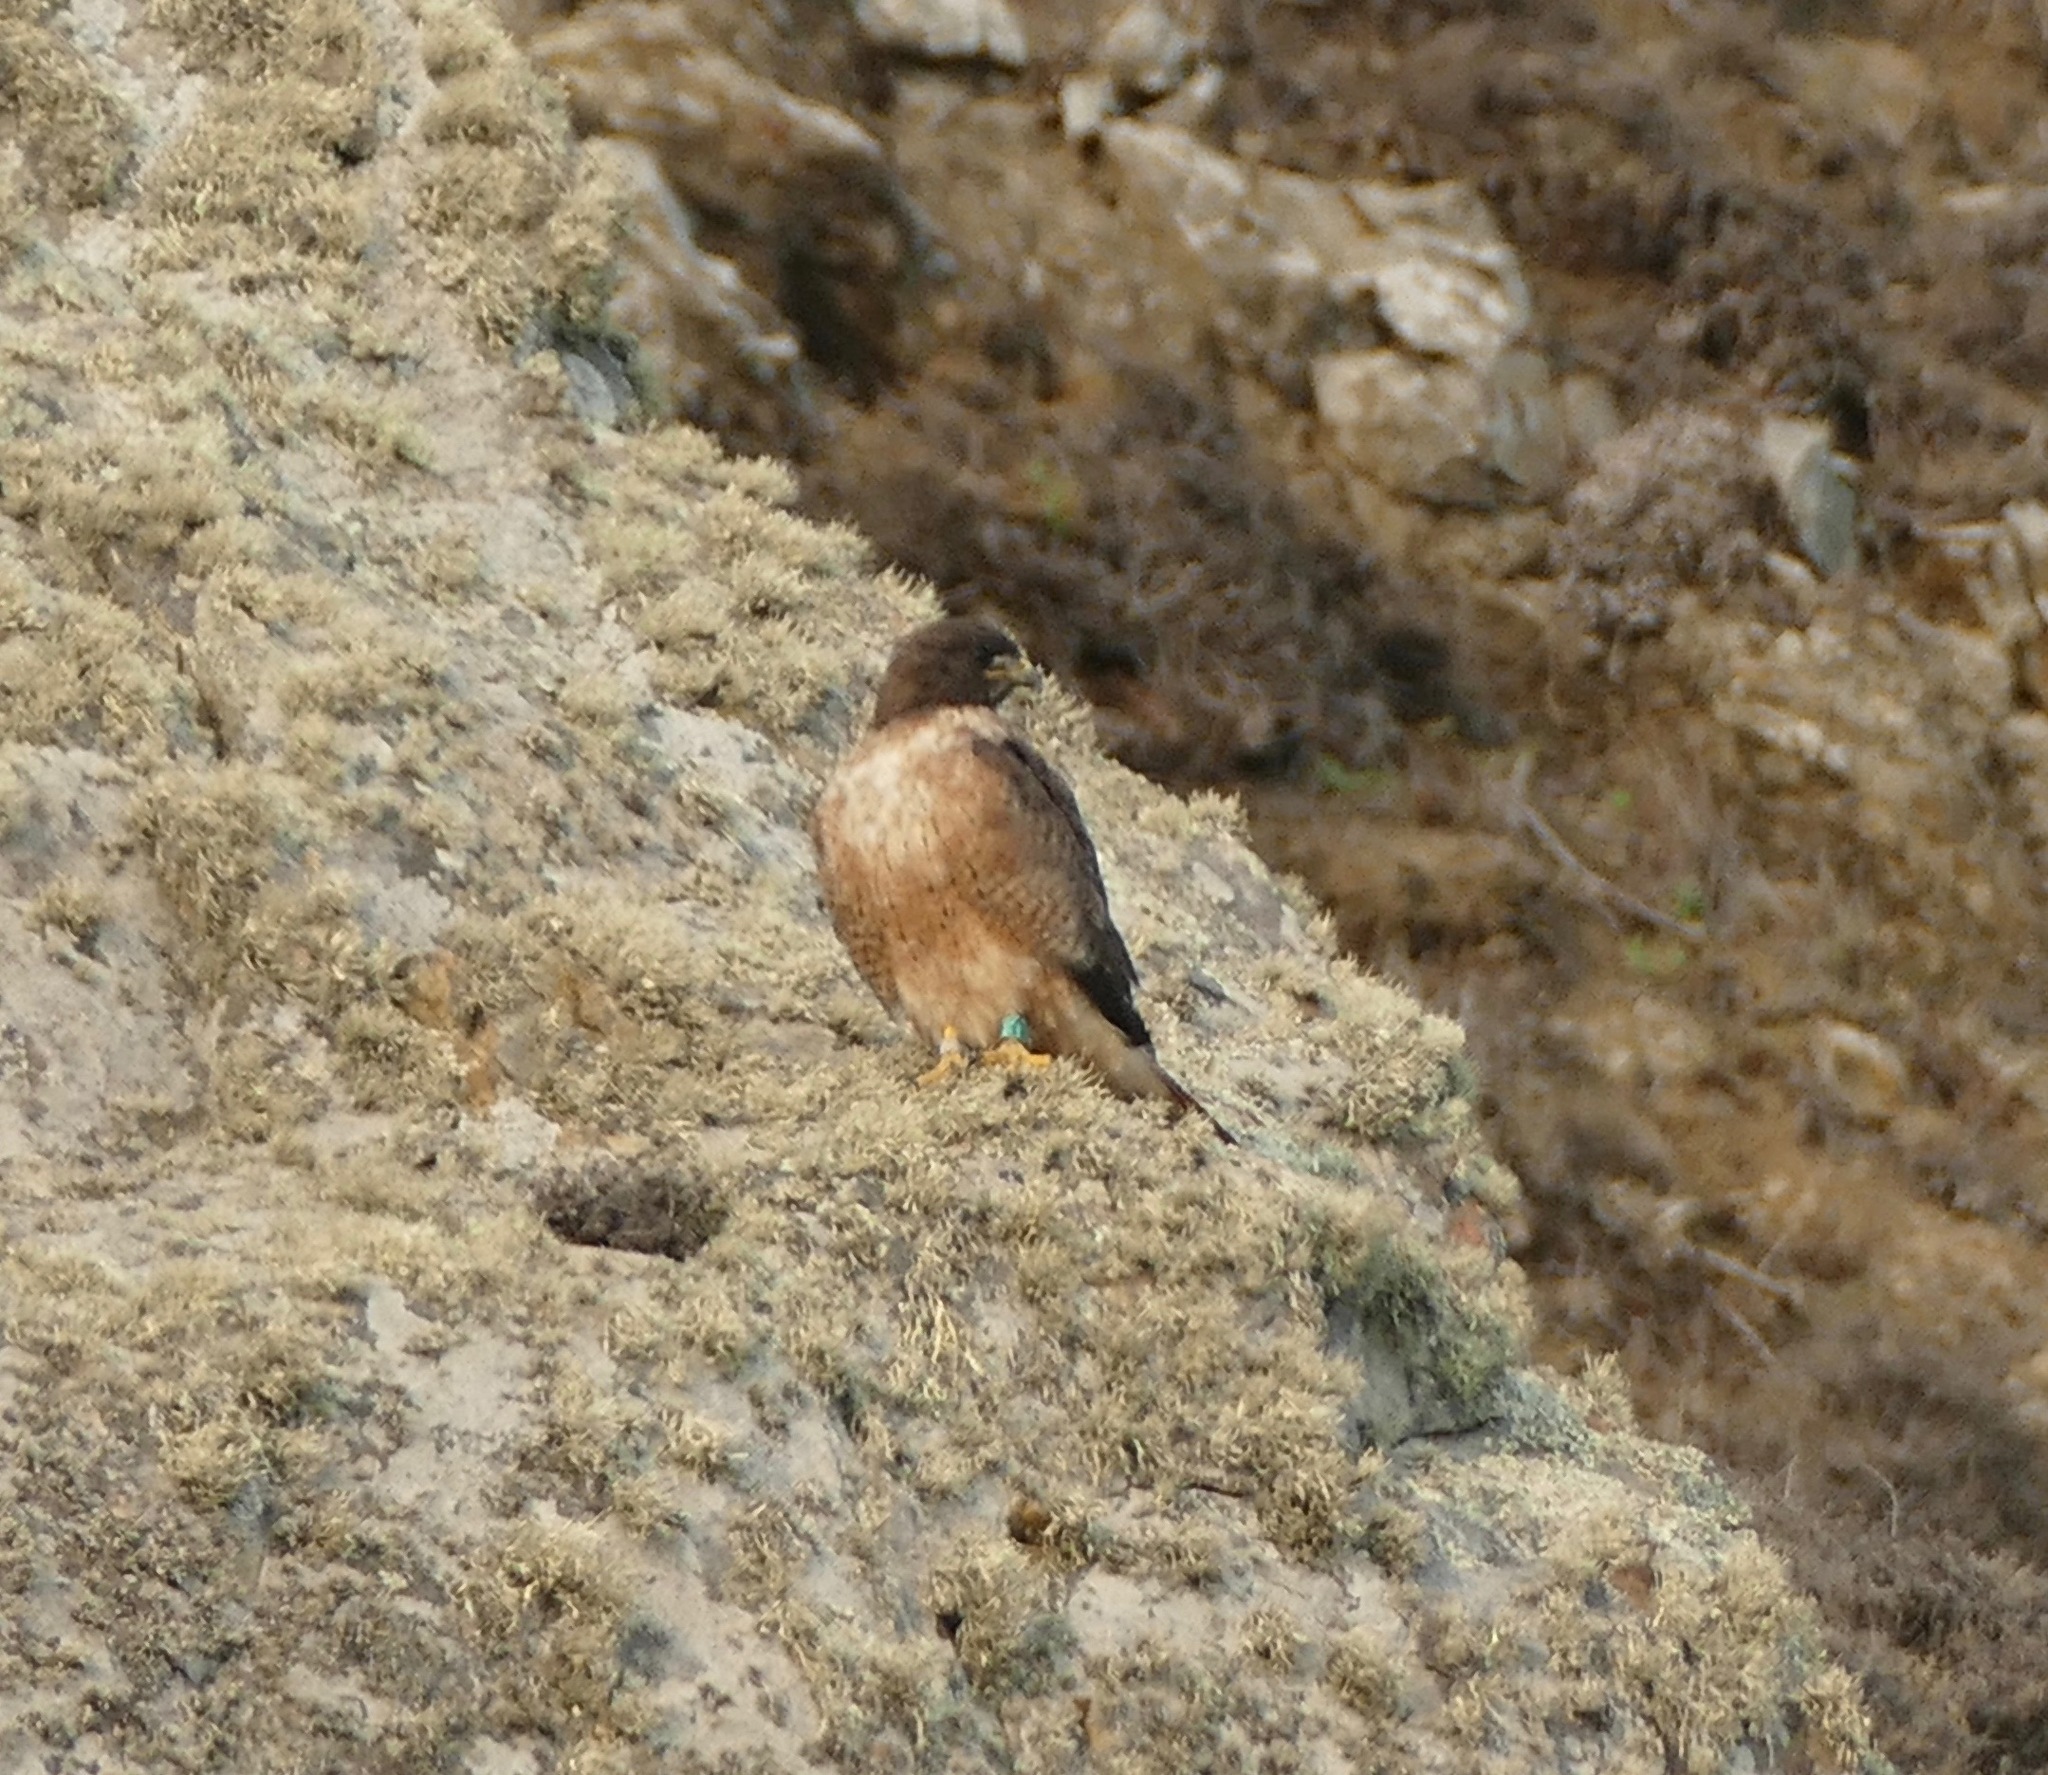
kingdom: Animalia
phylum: Chordata
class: Aves
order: Accipitriformes
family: Accipitridae
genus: Buteo
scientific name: Buteo jamaicensis
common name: Red-tailed hawk
